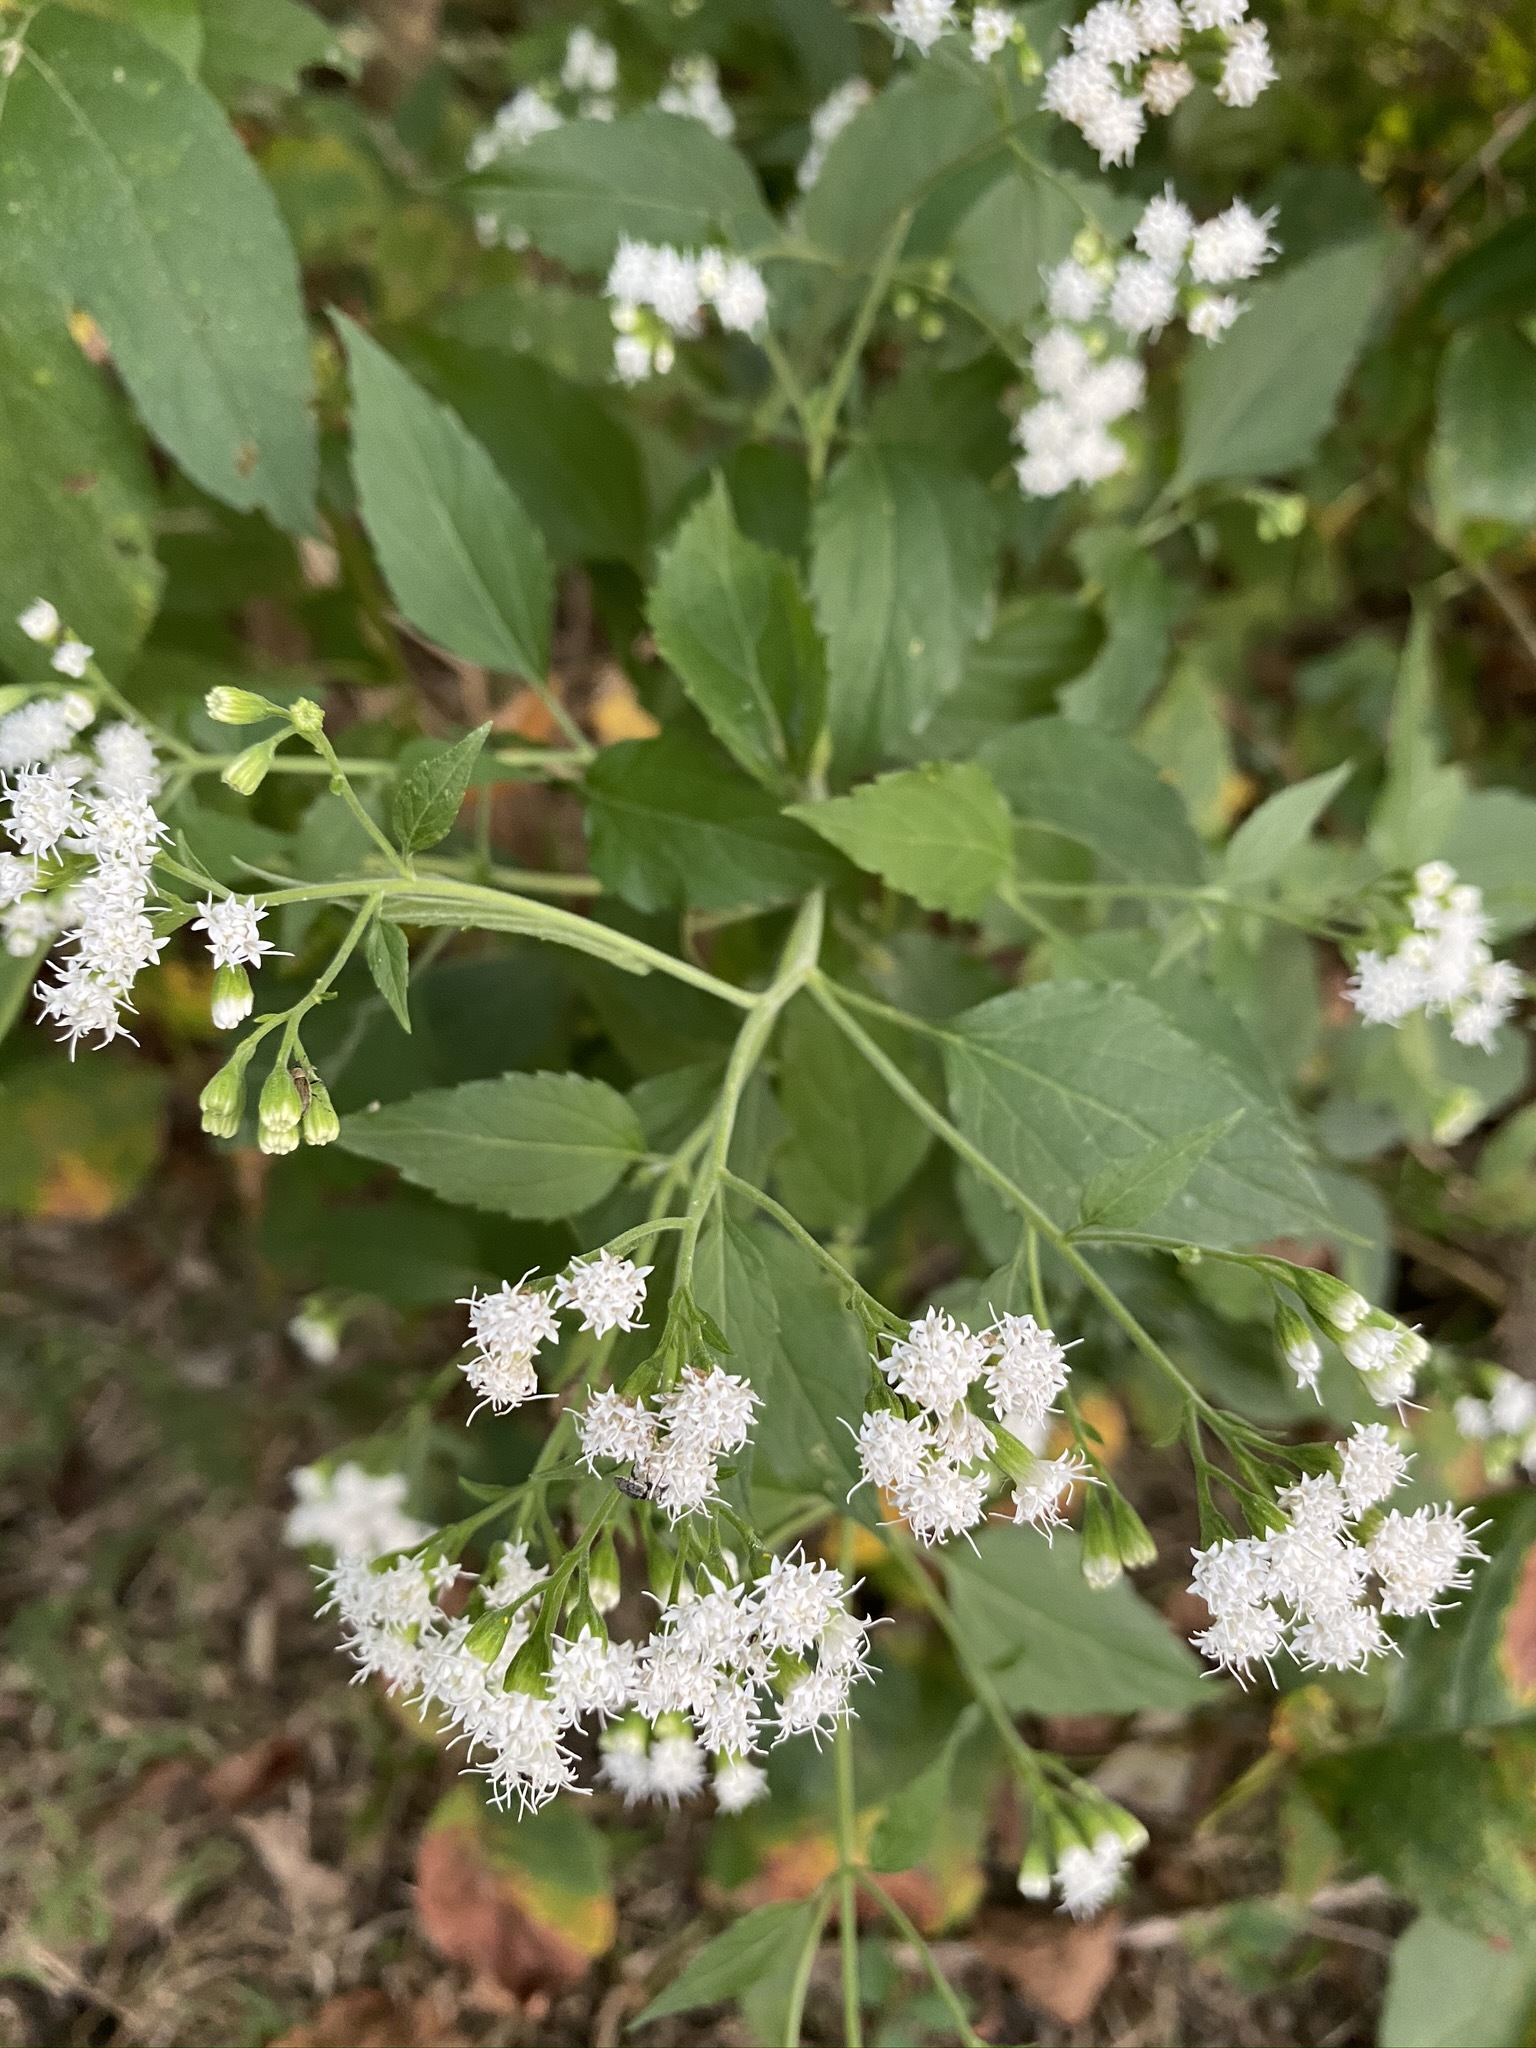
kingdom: Plantae
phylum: Tracheophyta
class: Magnoliopsida
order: Asterales
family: Asteraceae
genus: Ageratina
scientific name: Ageratina altissima
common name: White snakeroot
